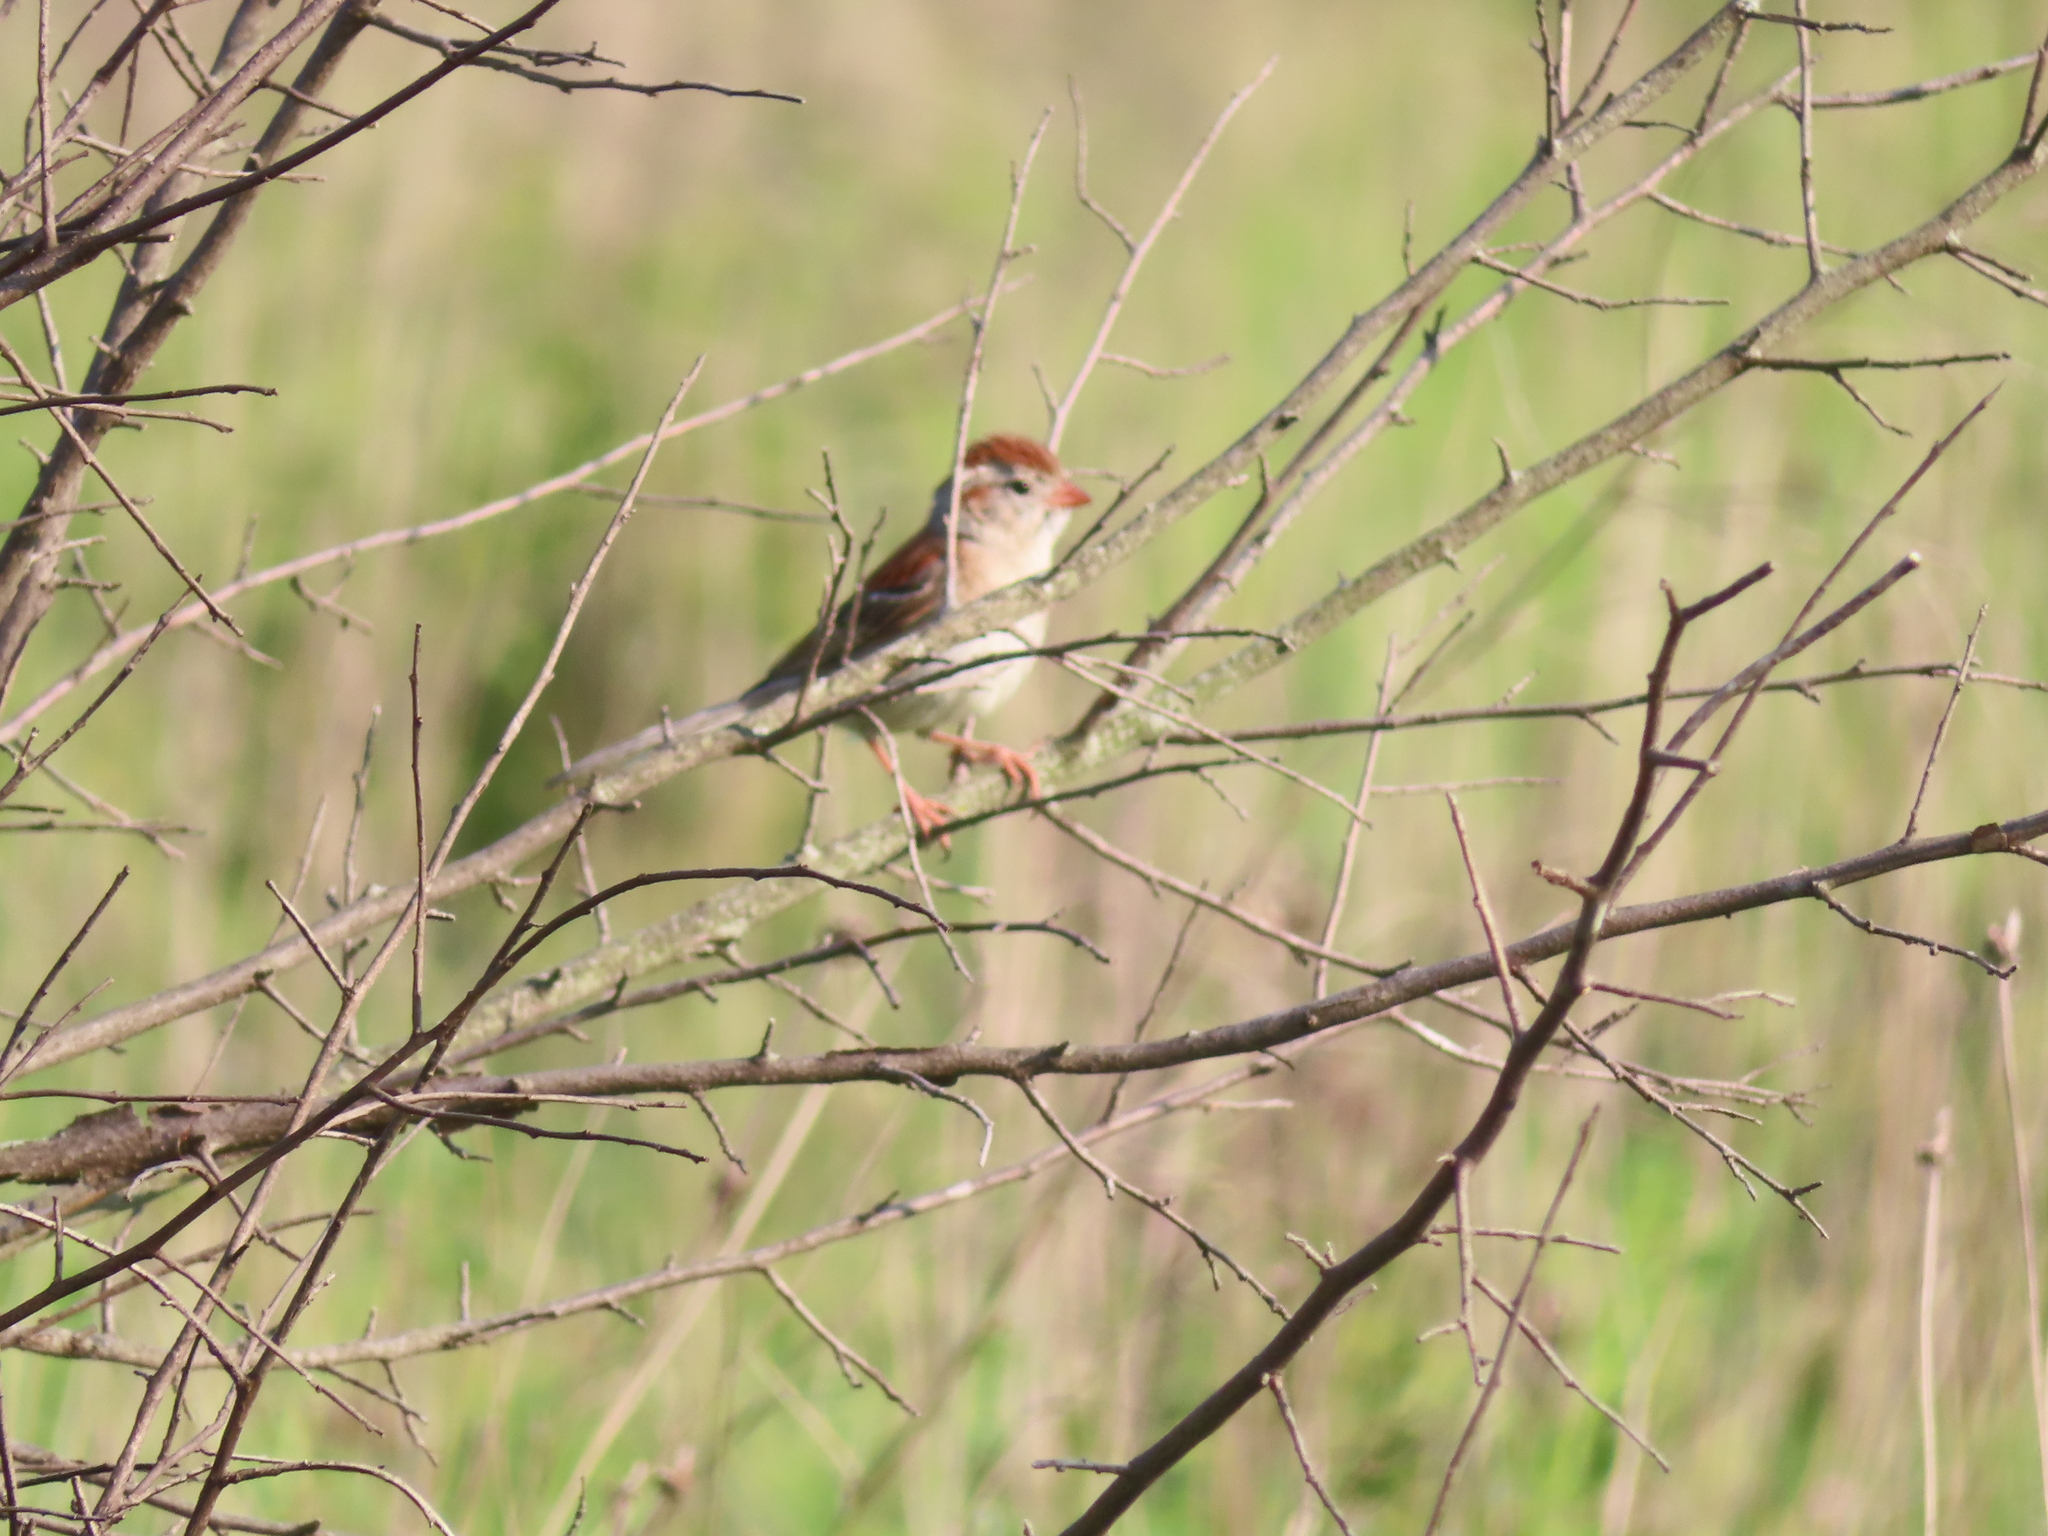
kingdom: Animalia
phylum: Chordata
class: Aves
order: Passeriformes
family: Passerellidae
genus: Spizella
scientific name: Spizella pusilla
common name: Field sparrow
